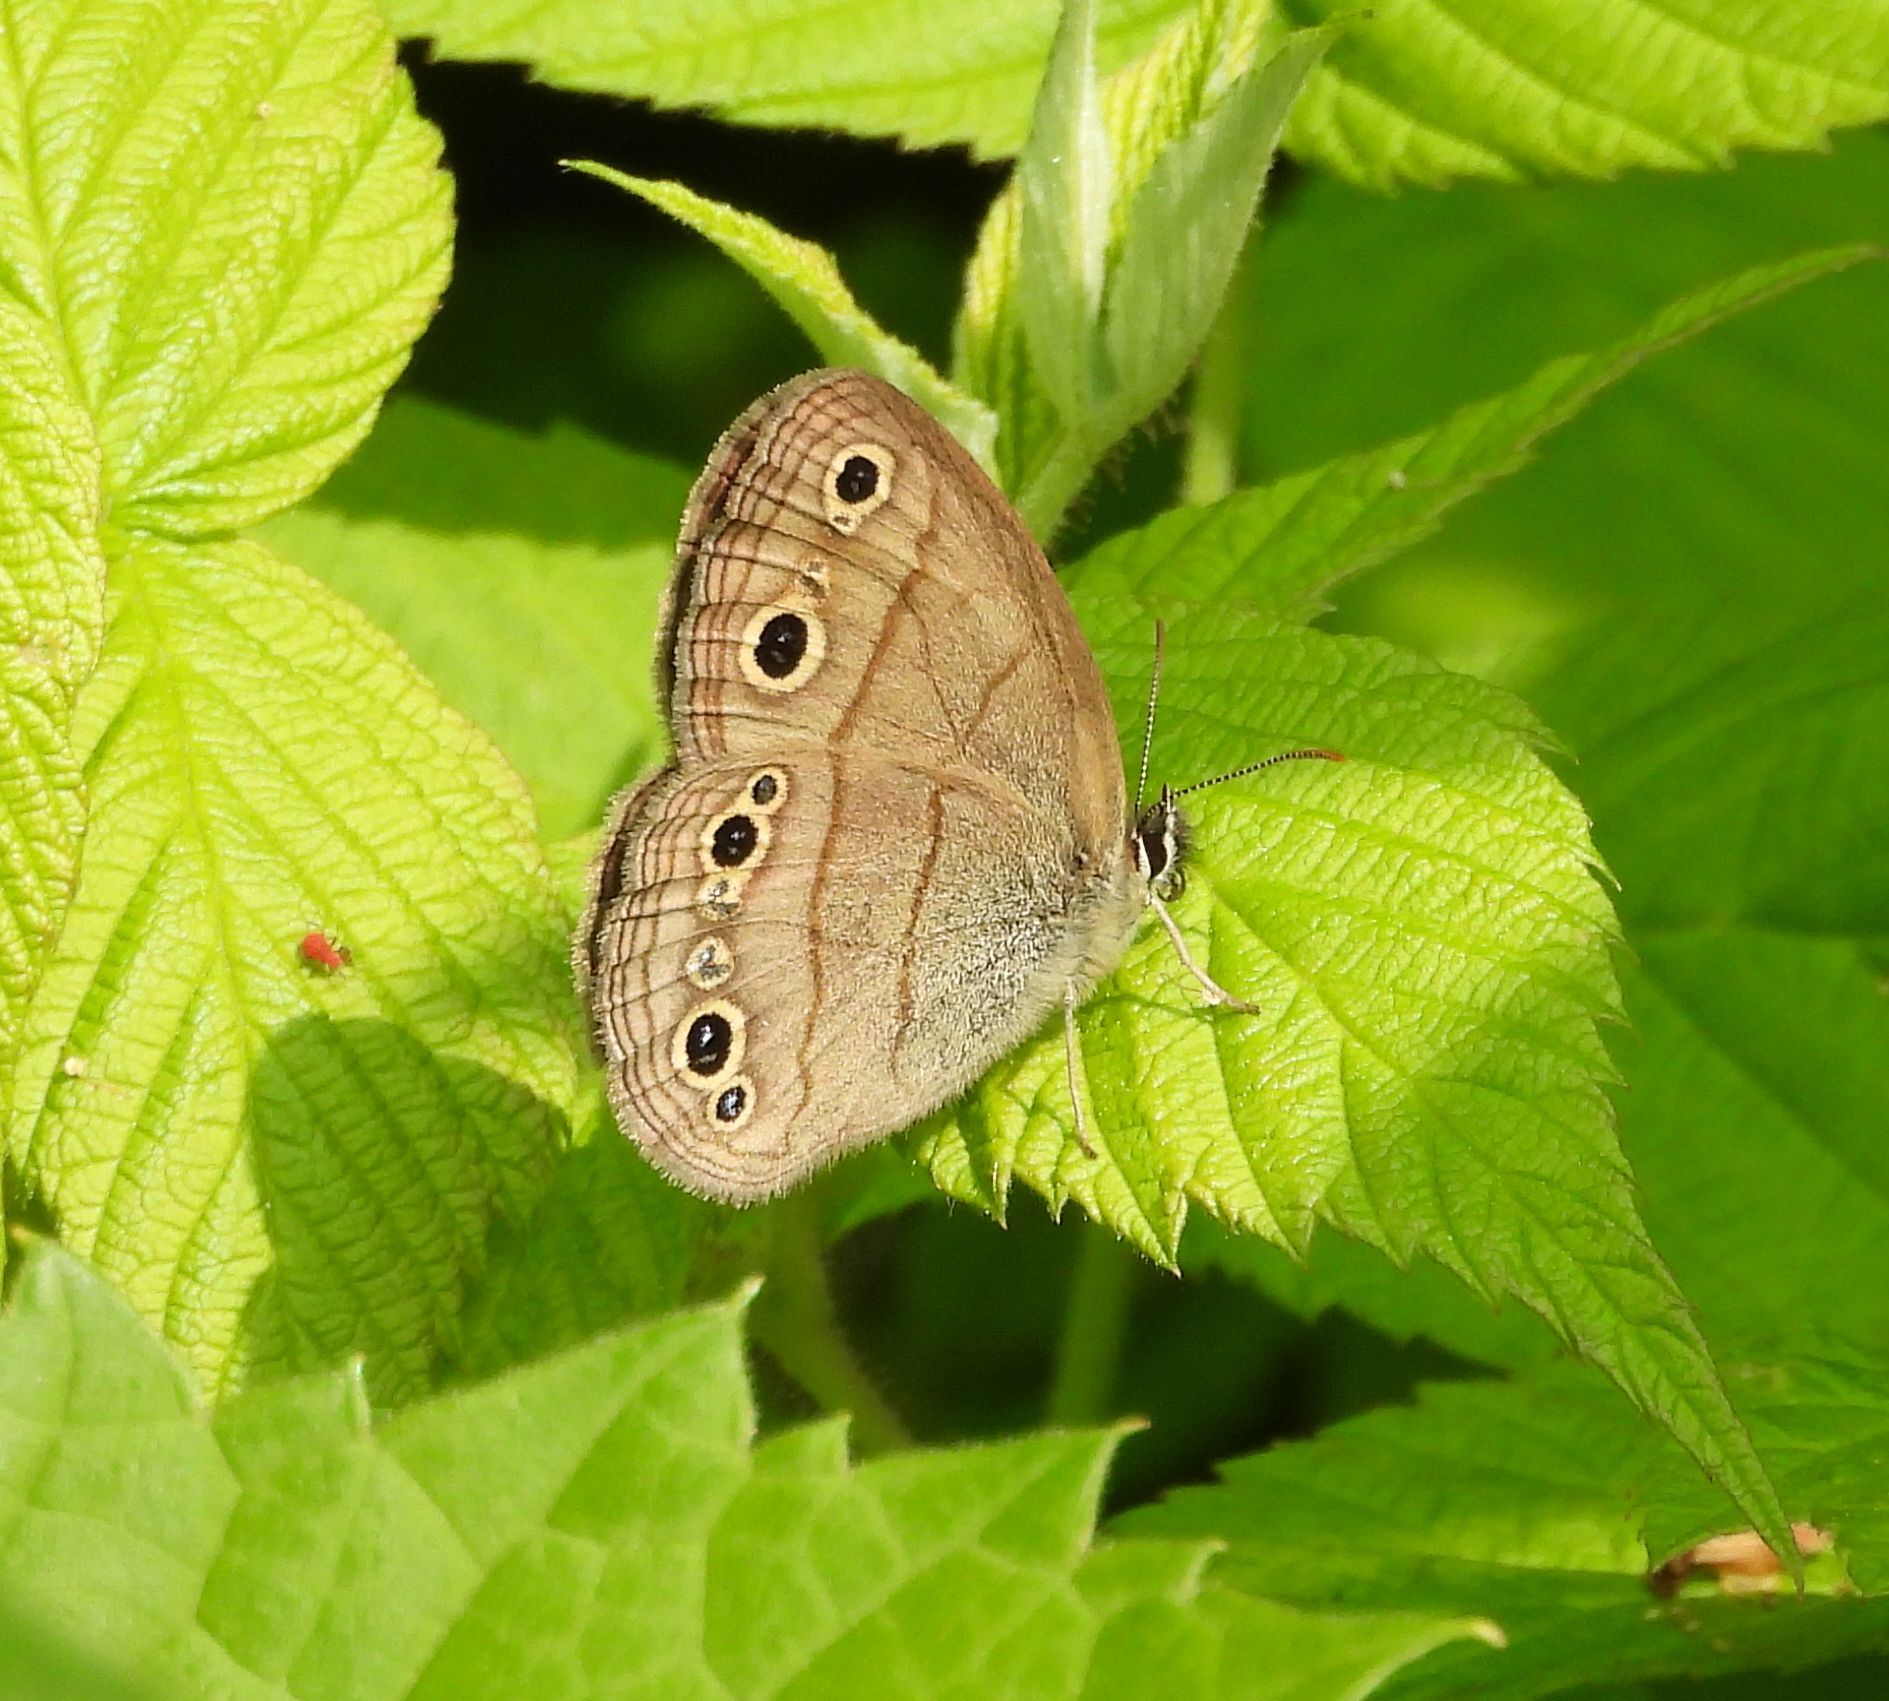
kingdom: Animalia
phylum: Arthropoda
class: Insecta
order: Lepidoptera
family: Nymphalidae
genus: Euptychia
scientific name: Euptychia cymela
